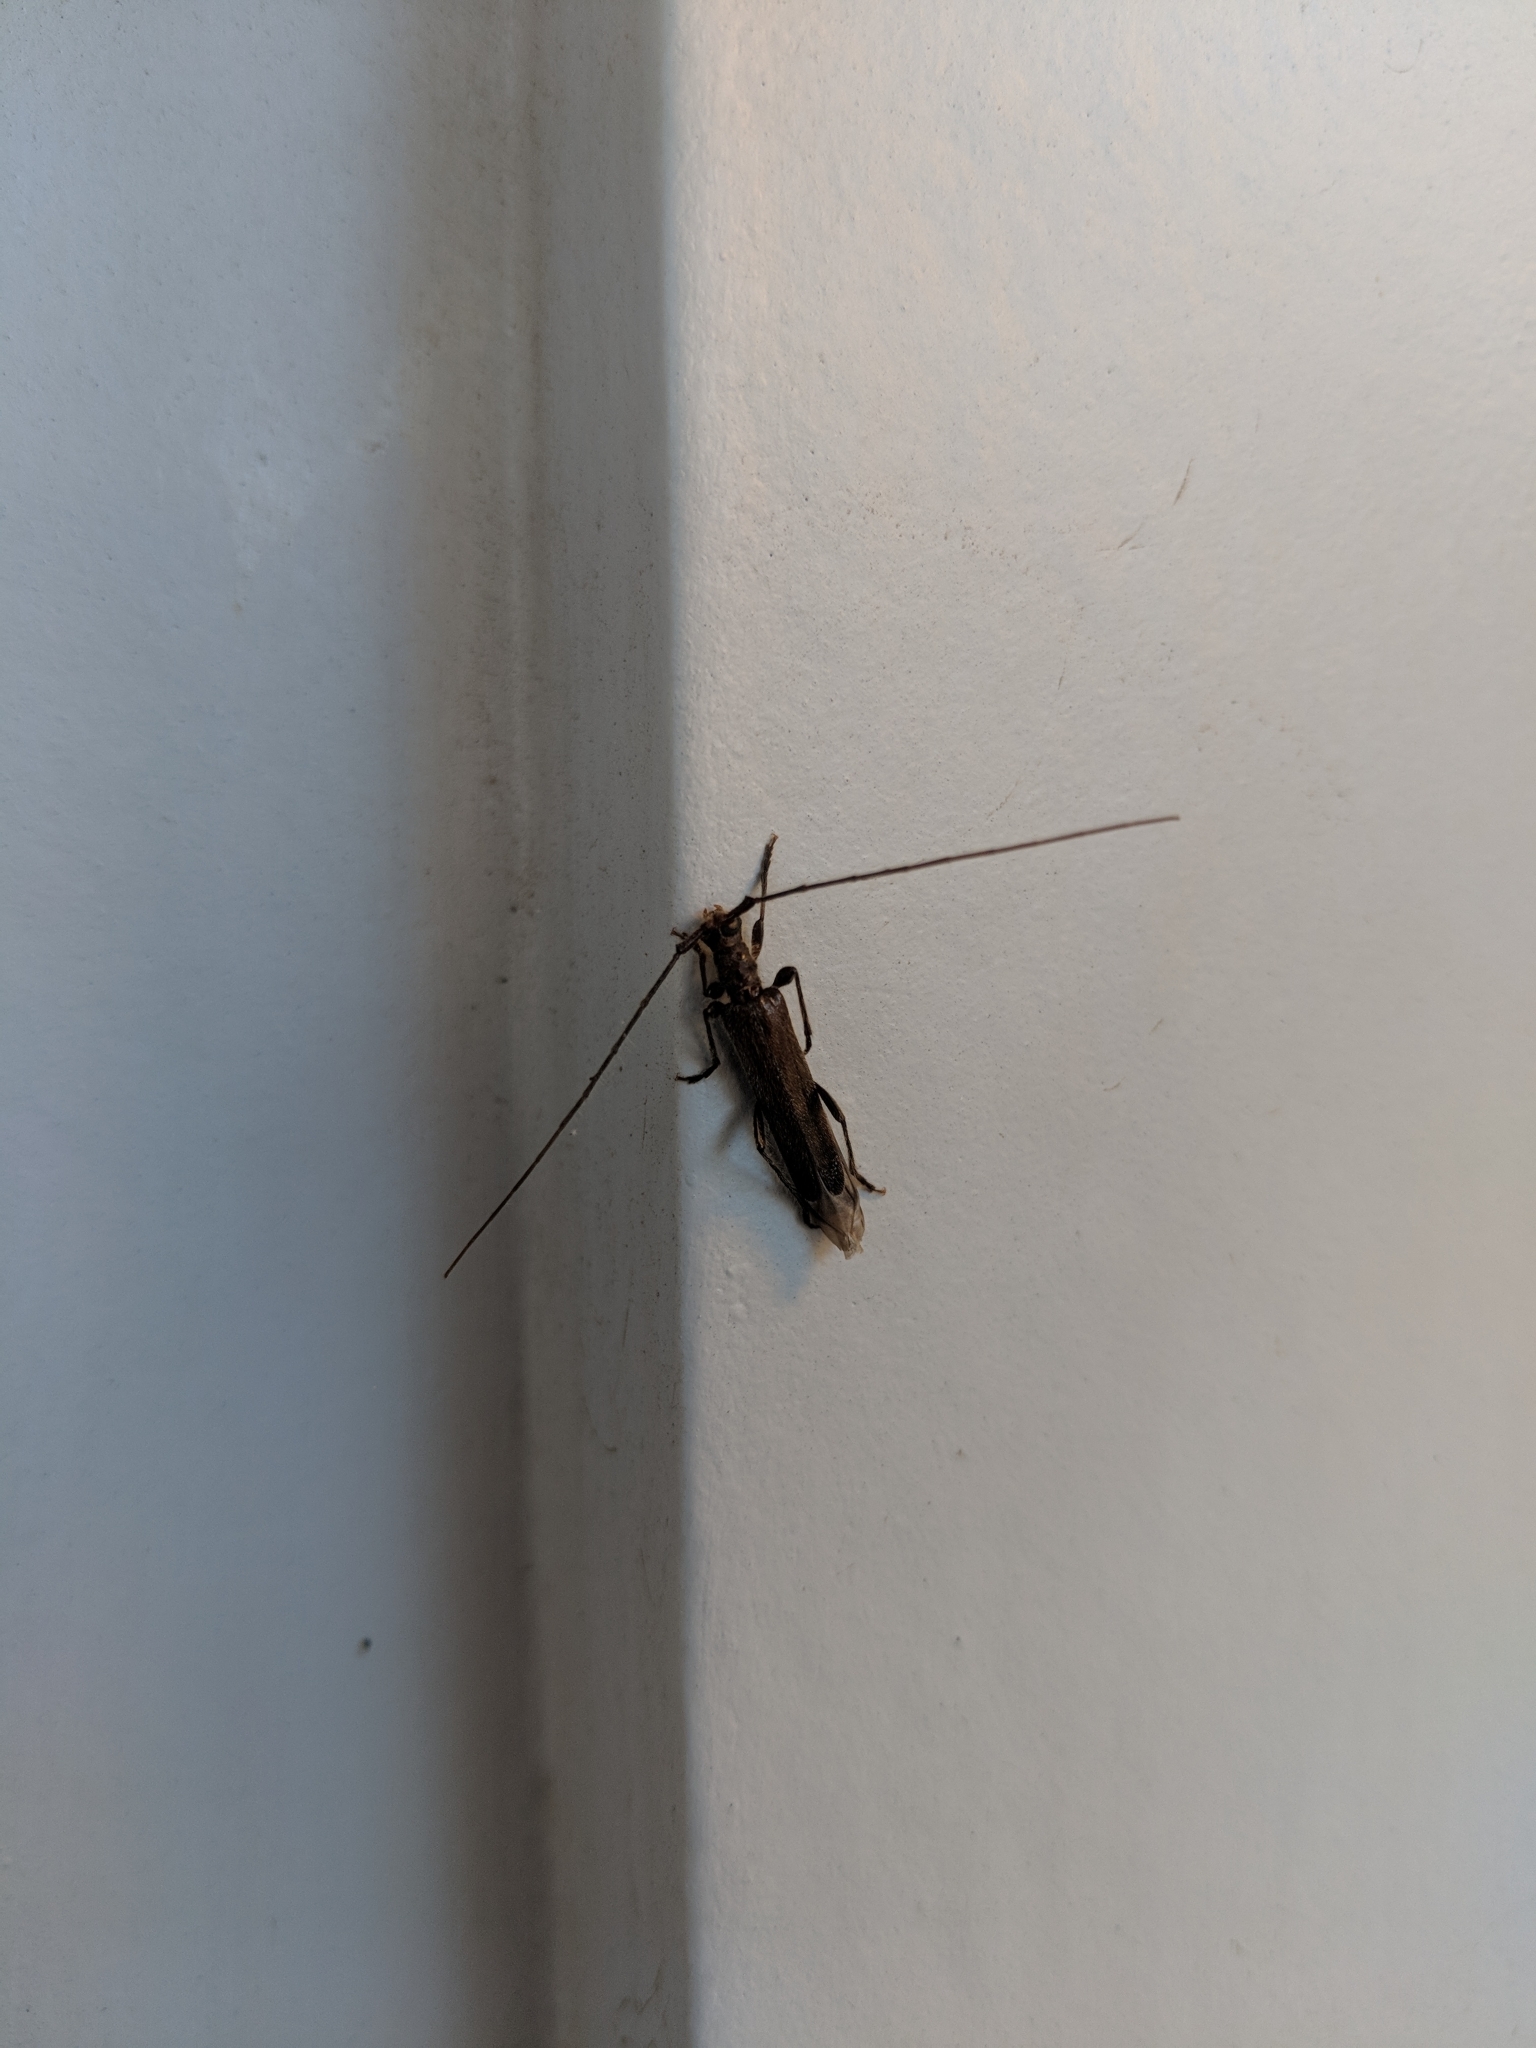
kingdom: Animalia
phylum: Arthropoda
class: Insecta
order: Coleoptera
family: Cerambycidae
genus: Styloxus
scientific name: Styloxus fulleri
